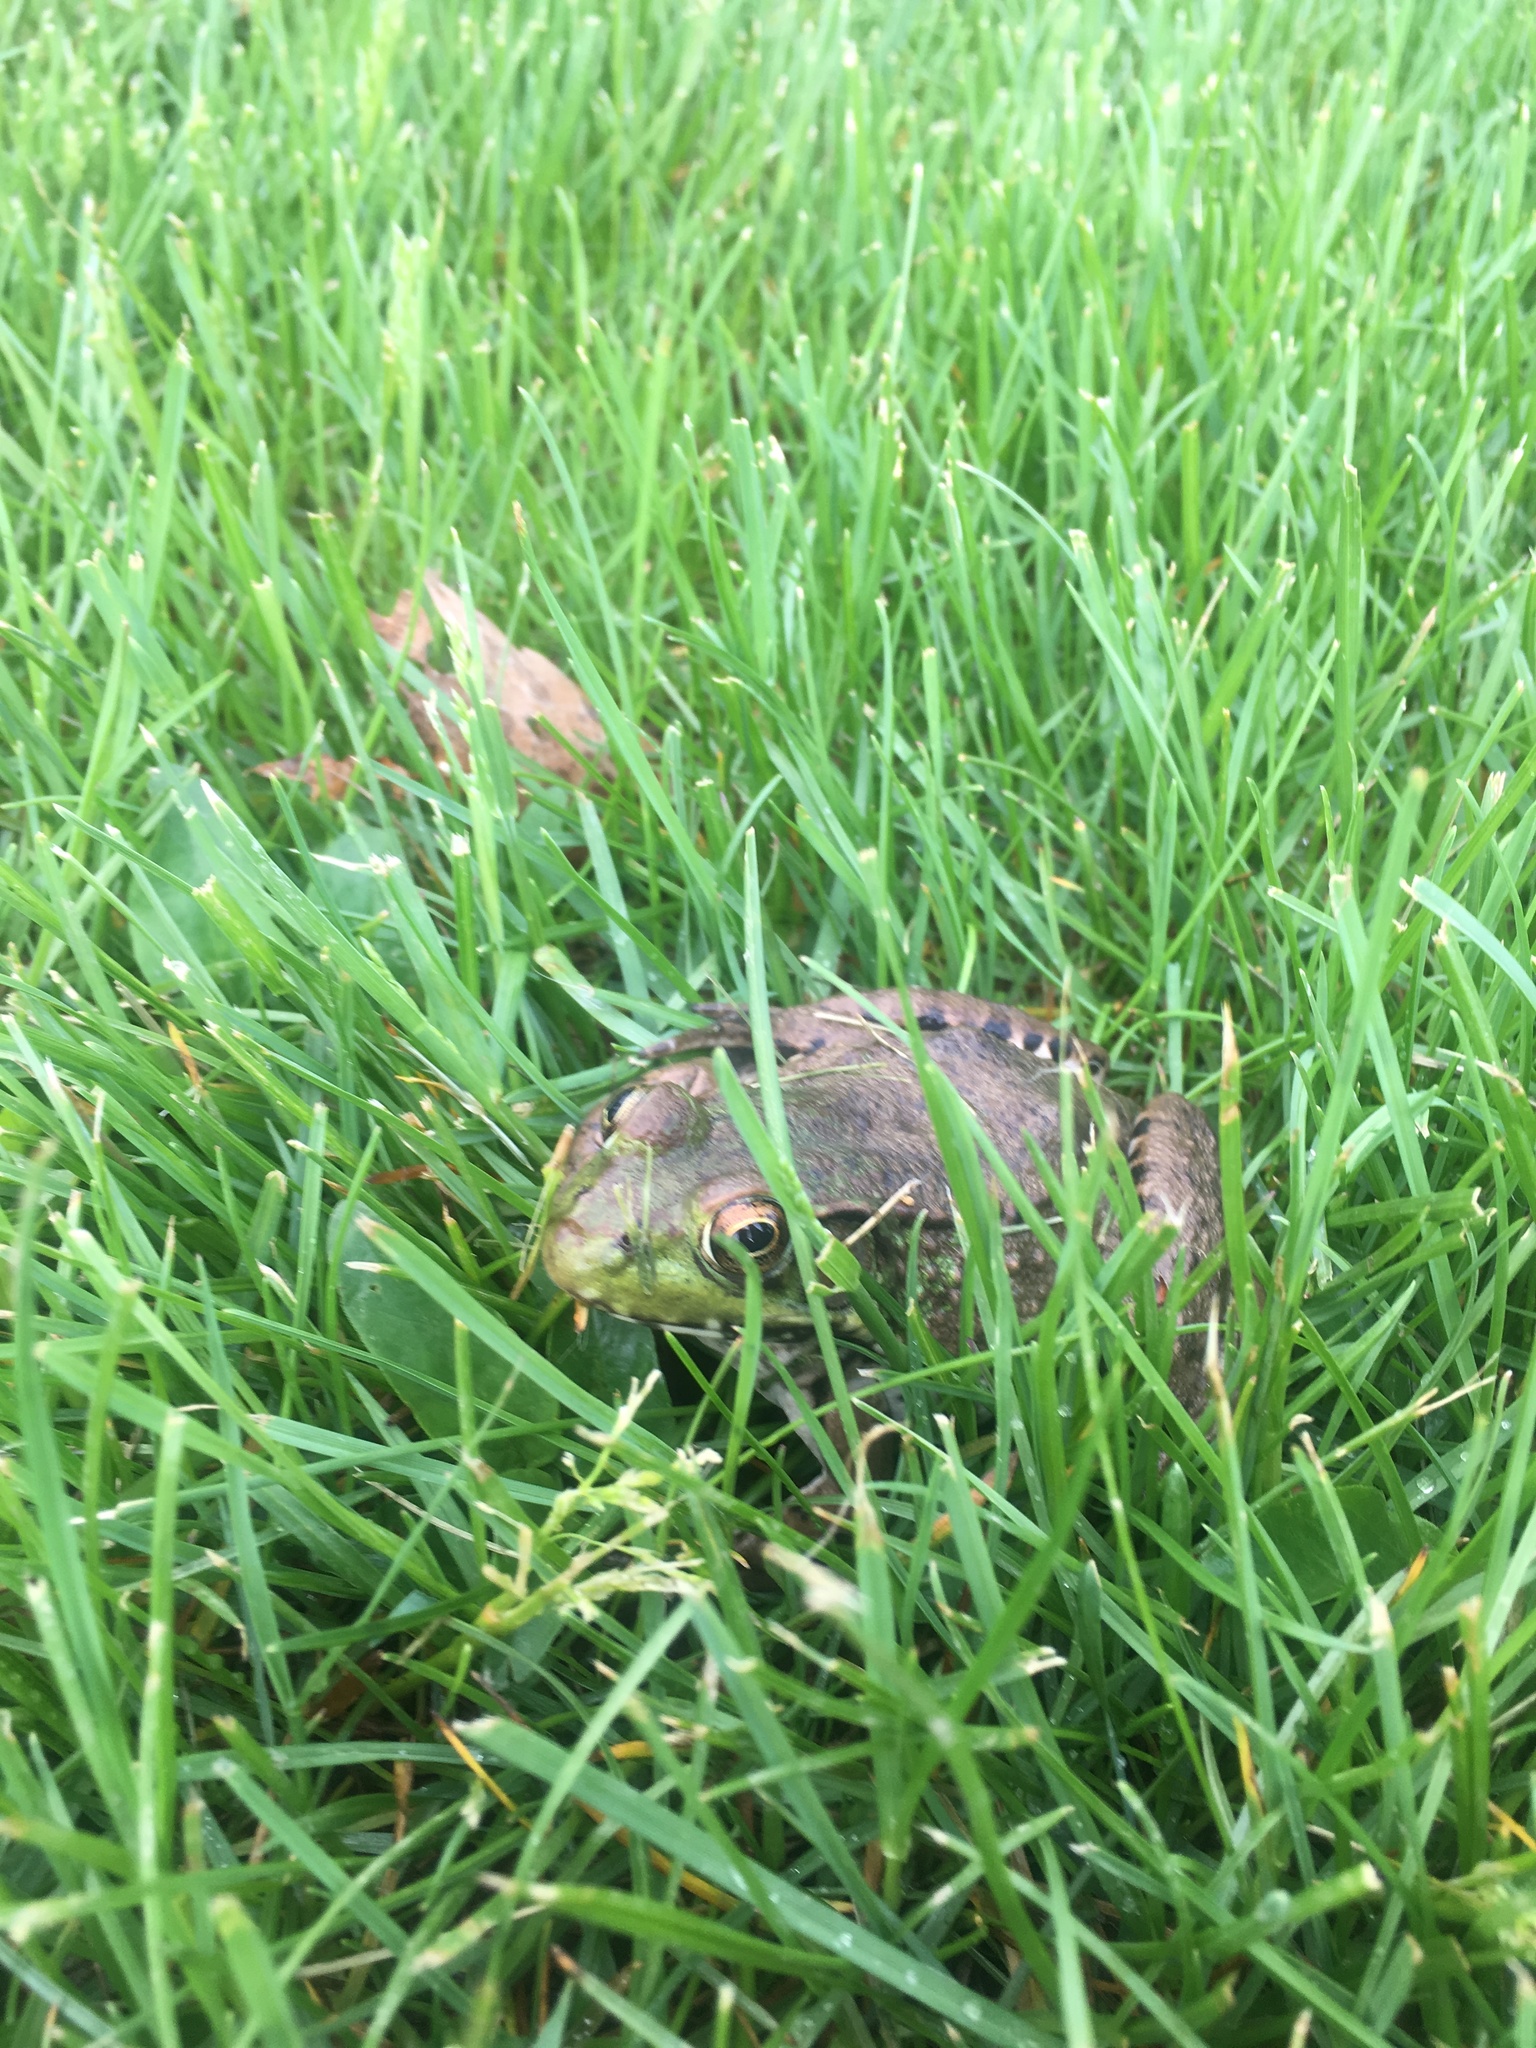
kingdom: Animalia
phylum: Chordata
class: Amphibia
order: Anura
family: Ranidae
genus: Lithobates
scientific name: Lithobates clamitans
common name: Green frog
